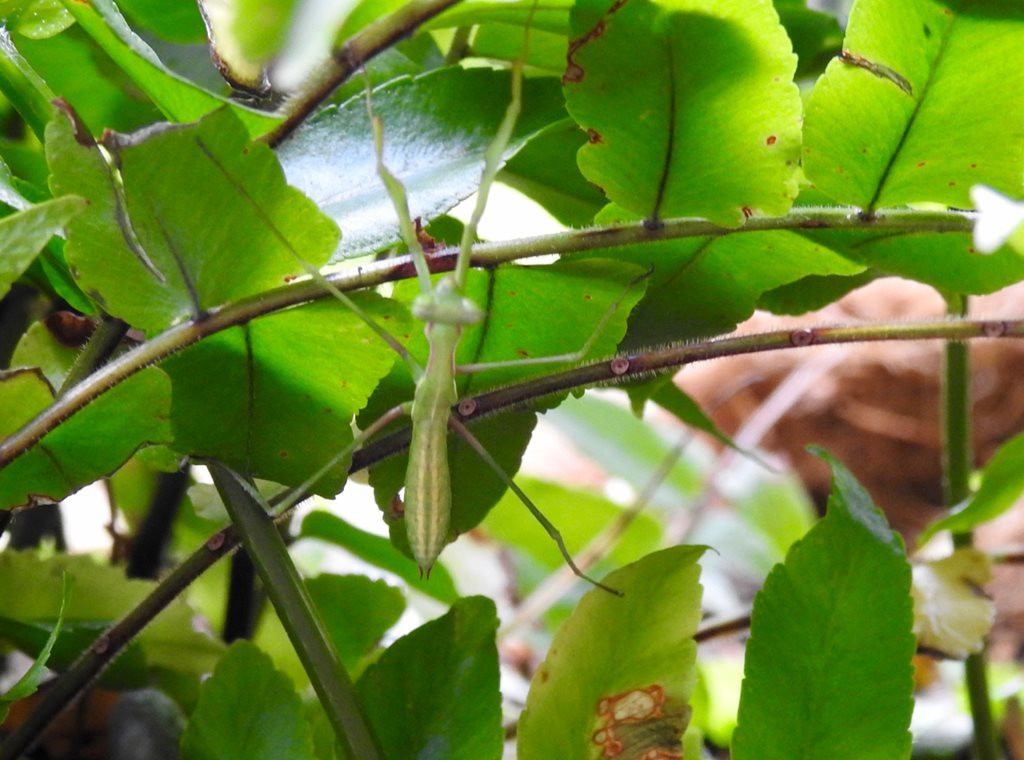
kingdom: Animalia
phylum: Arthropoda
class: Insecta
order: Mantodea
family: Mantidae
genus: Pseudomantis
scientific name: Pseudomantis albofimbriata
